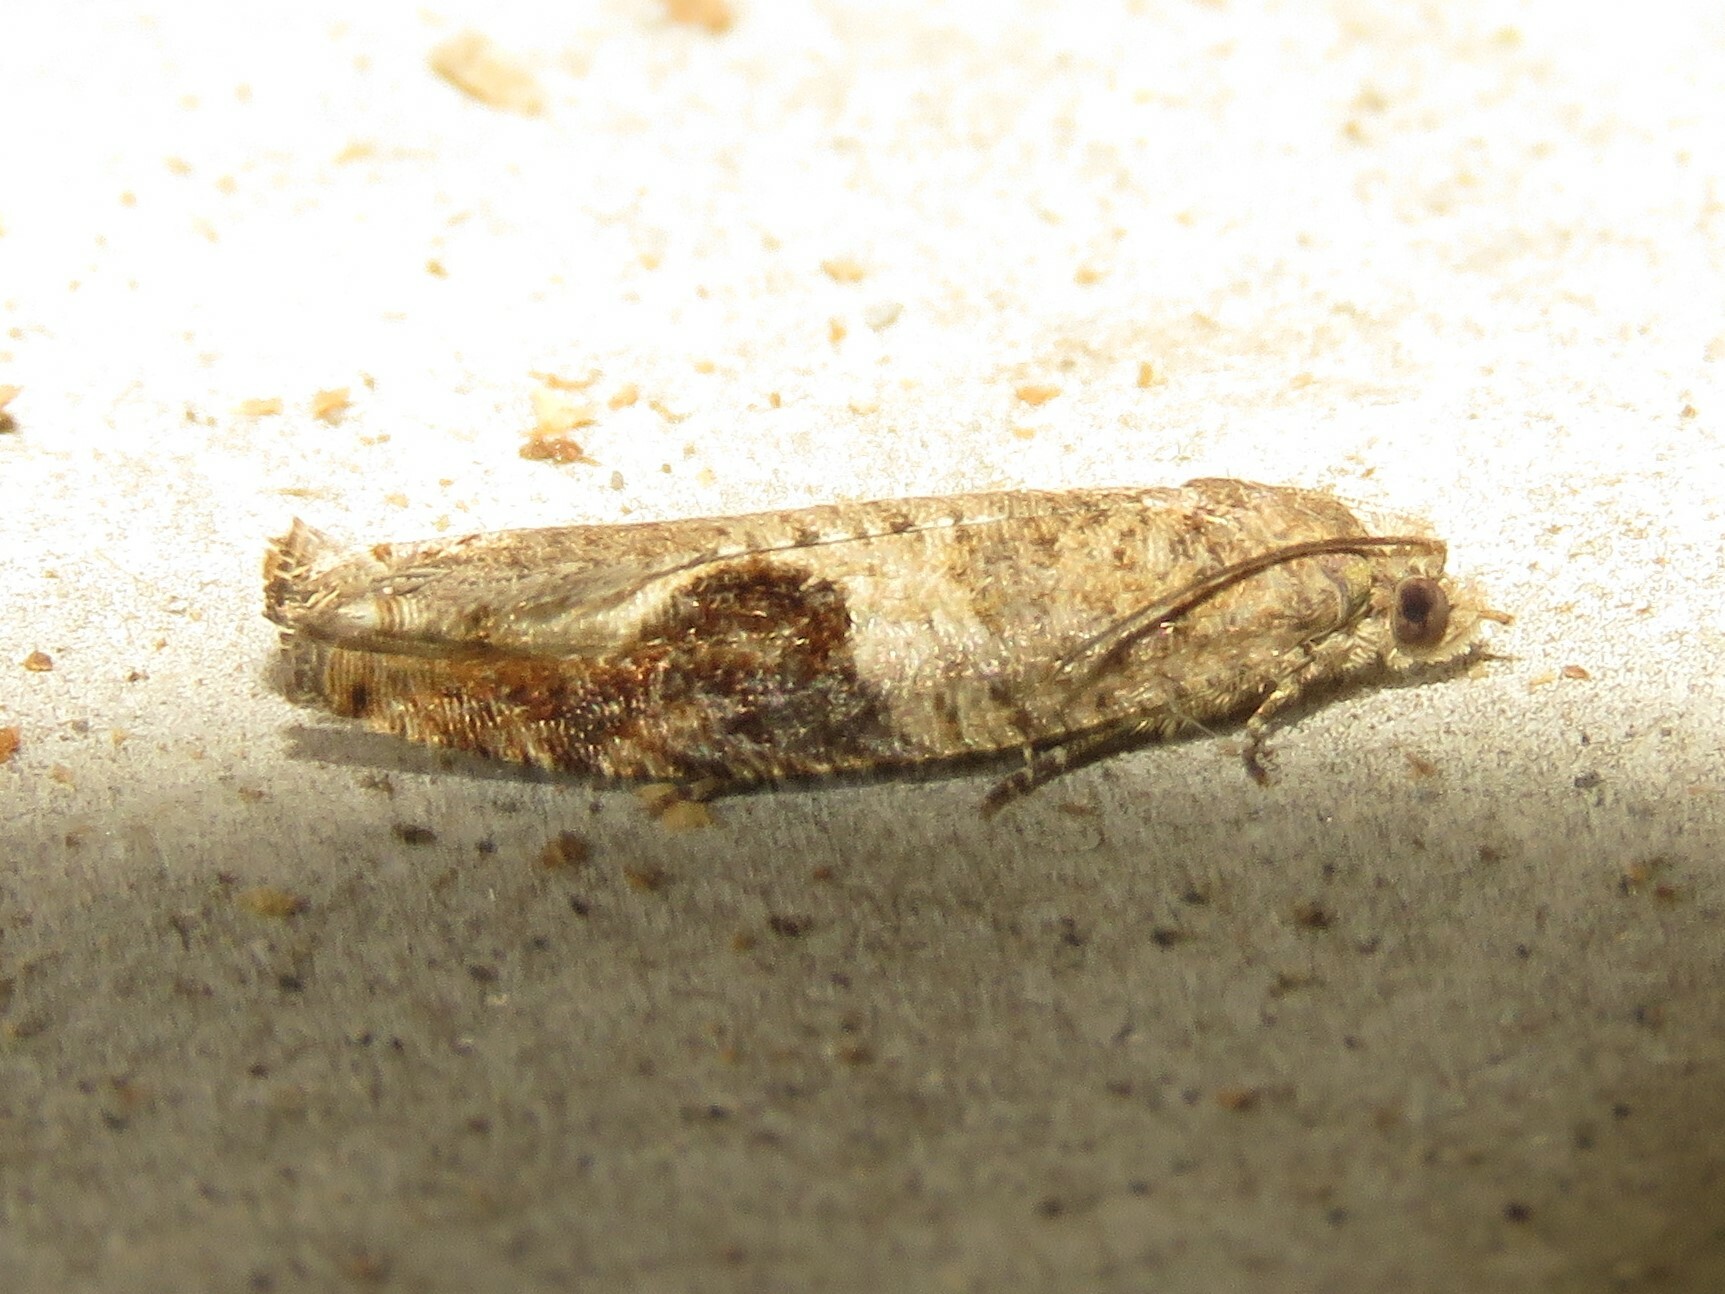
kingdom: Animalia
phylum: Arthropoda
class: Insecta
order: Lepidoptera
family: Tortricidae
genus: Pseudexentera
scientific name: Pseudexentera virginiana
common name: Virginia pseudexentera moth
